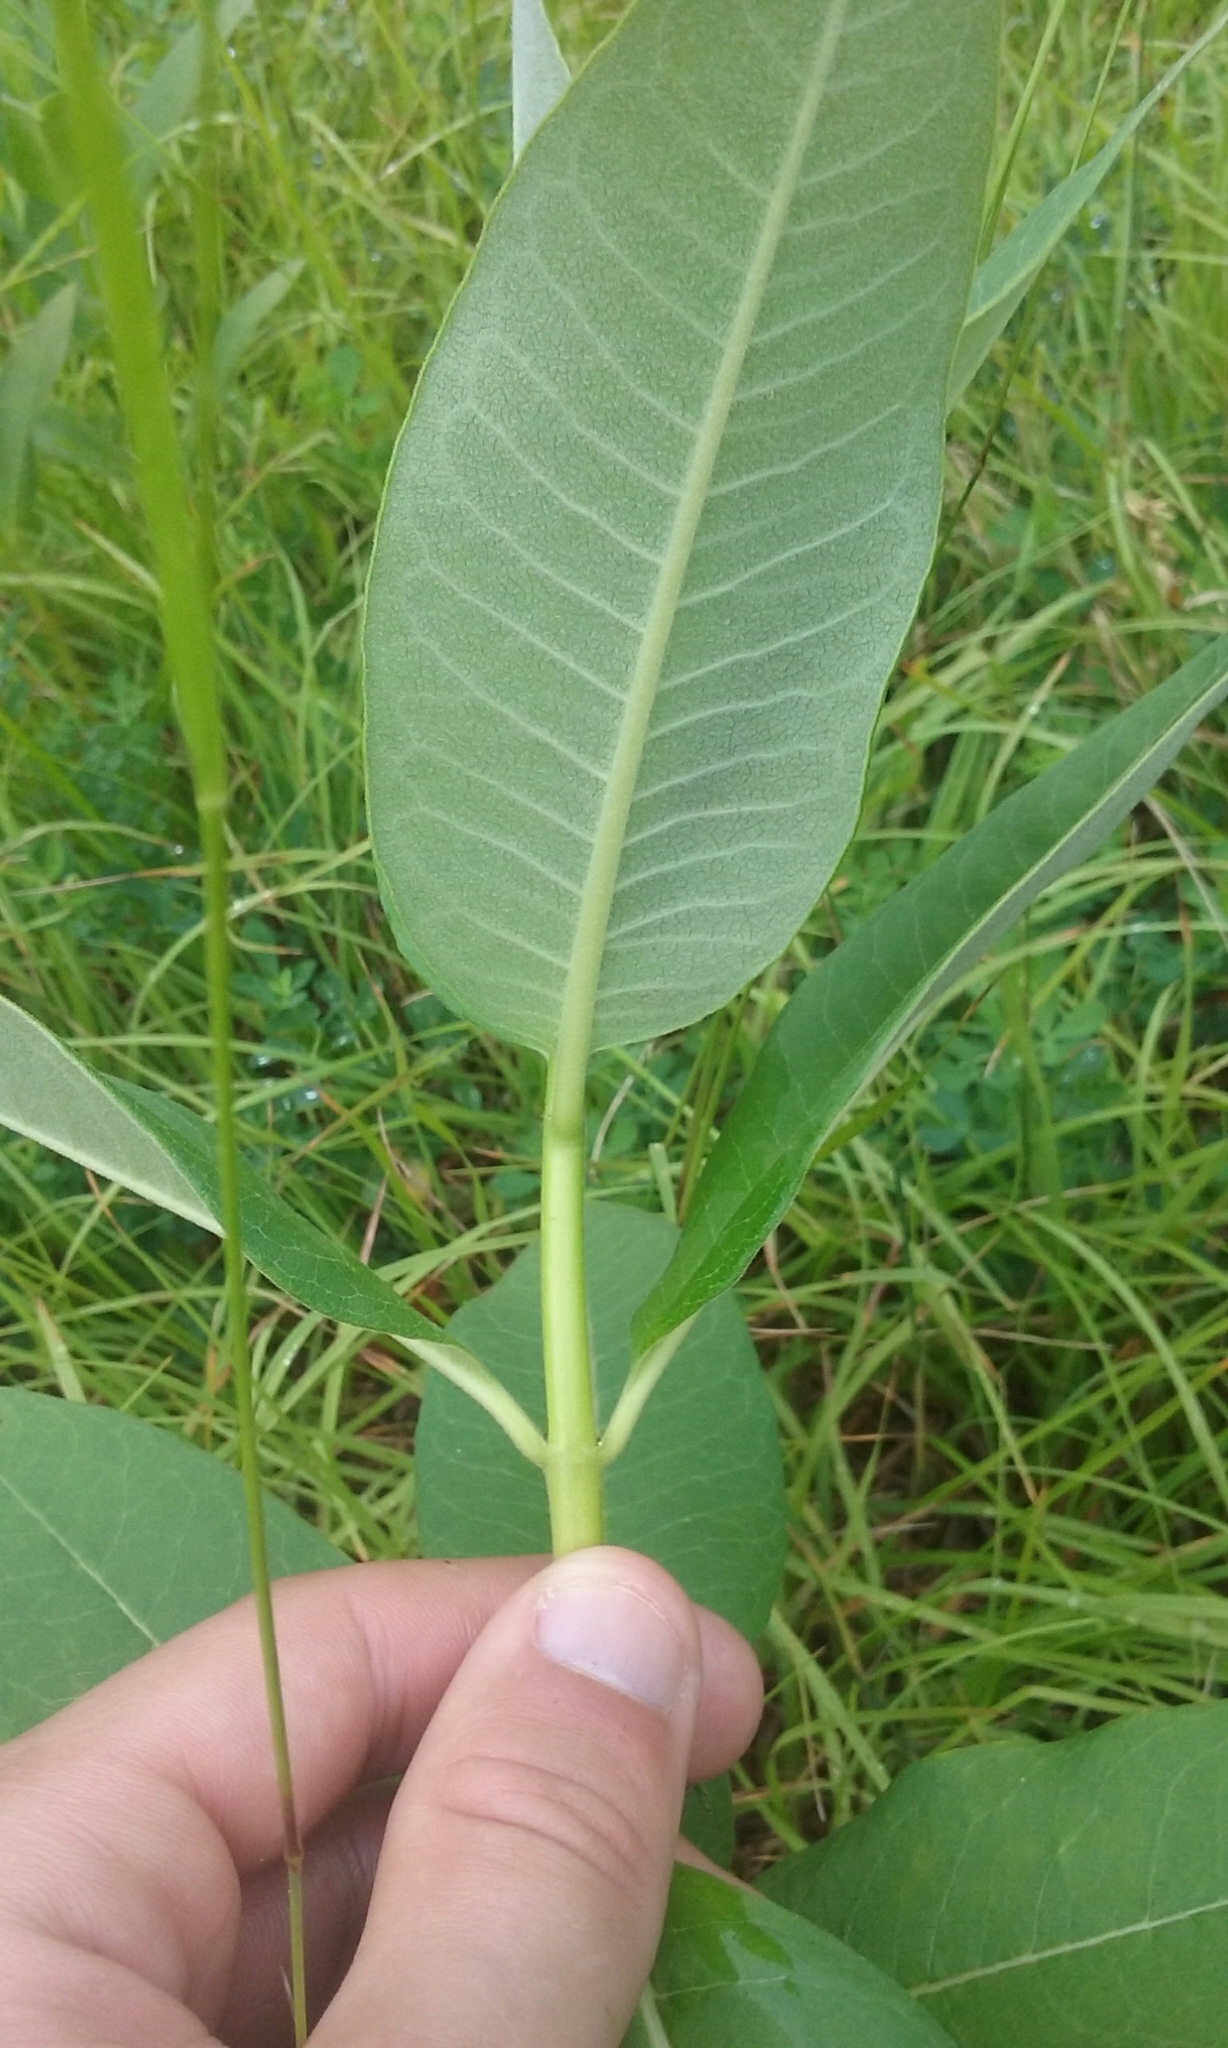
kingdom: Plantae
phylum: Tracheophyta
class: Magnoliopsida
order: Gentianales
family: Apocynaceae
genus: Asclepias
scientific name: Asclepias syriaca
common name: Common milkweed
